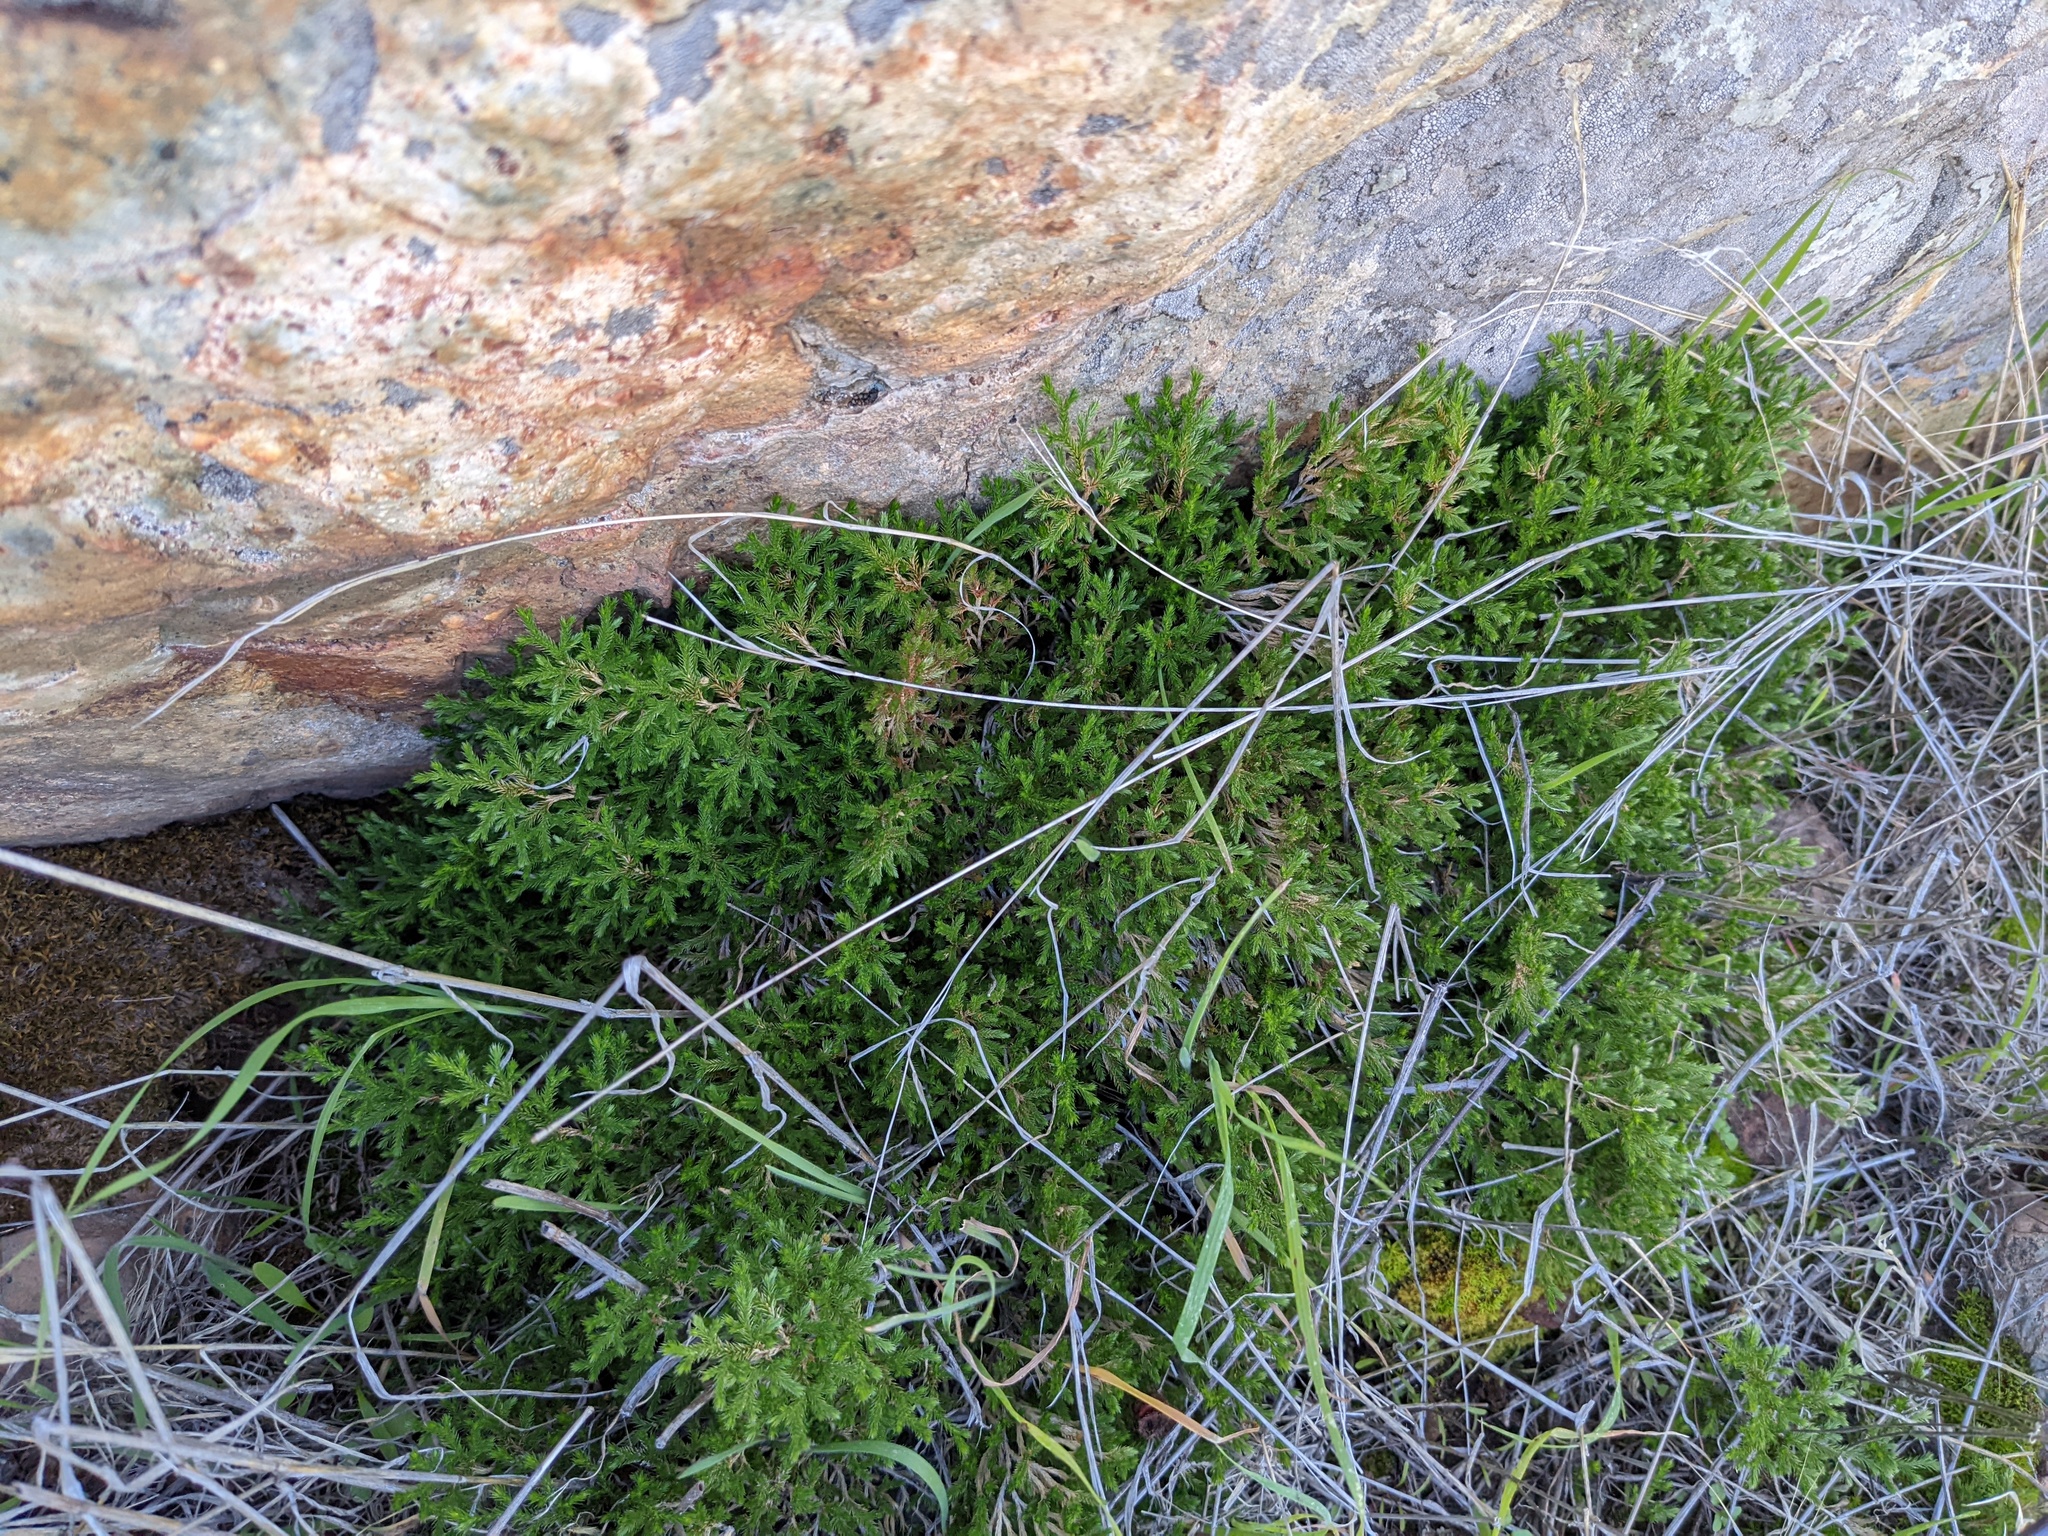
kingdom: Plantae
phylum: Tracheophyta
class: Lycopodiopsida
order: Selaginellales
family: Selaginellaceae
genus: Selaginella
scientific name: Selaginella bigelovii
